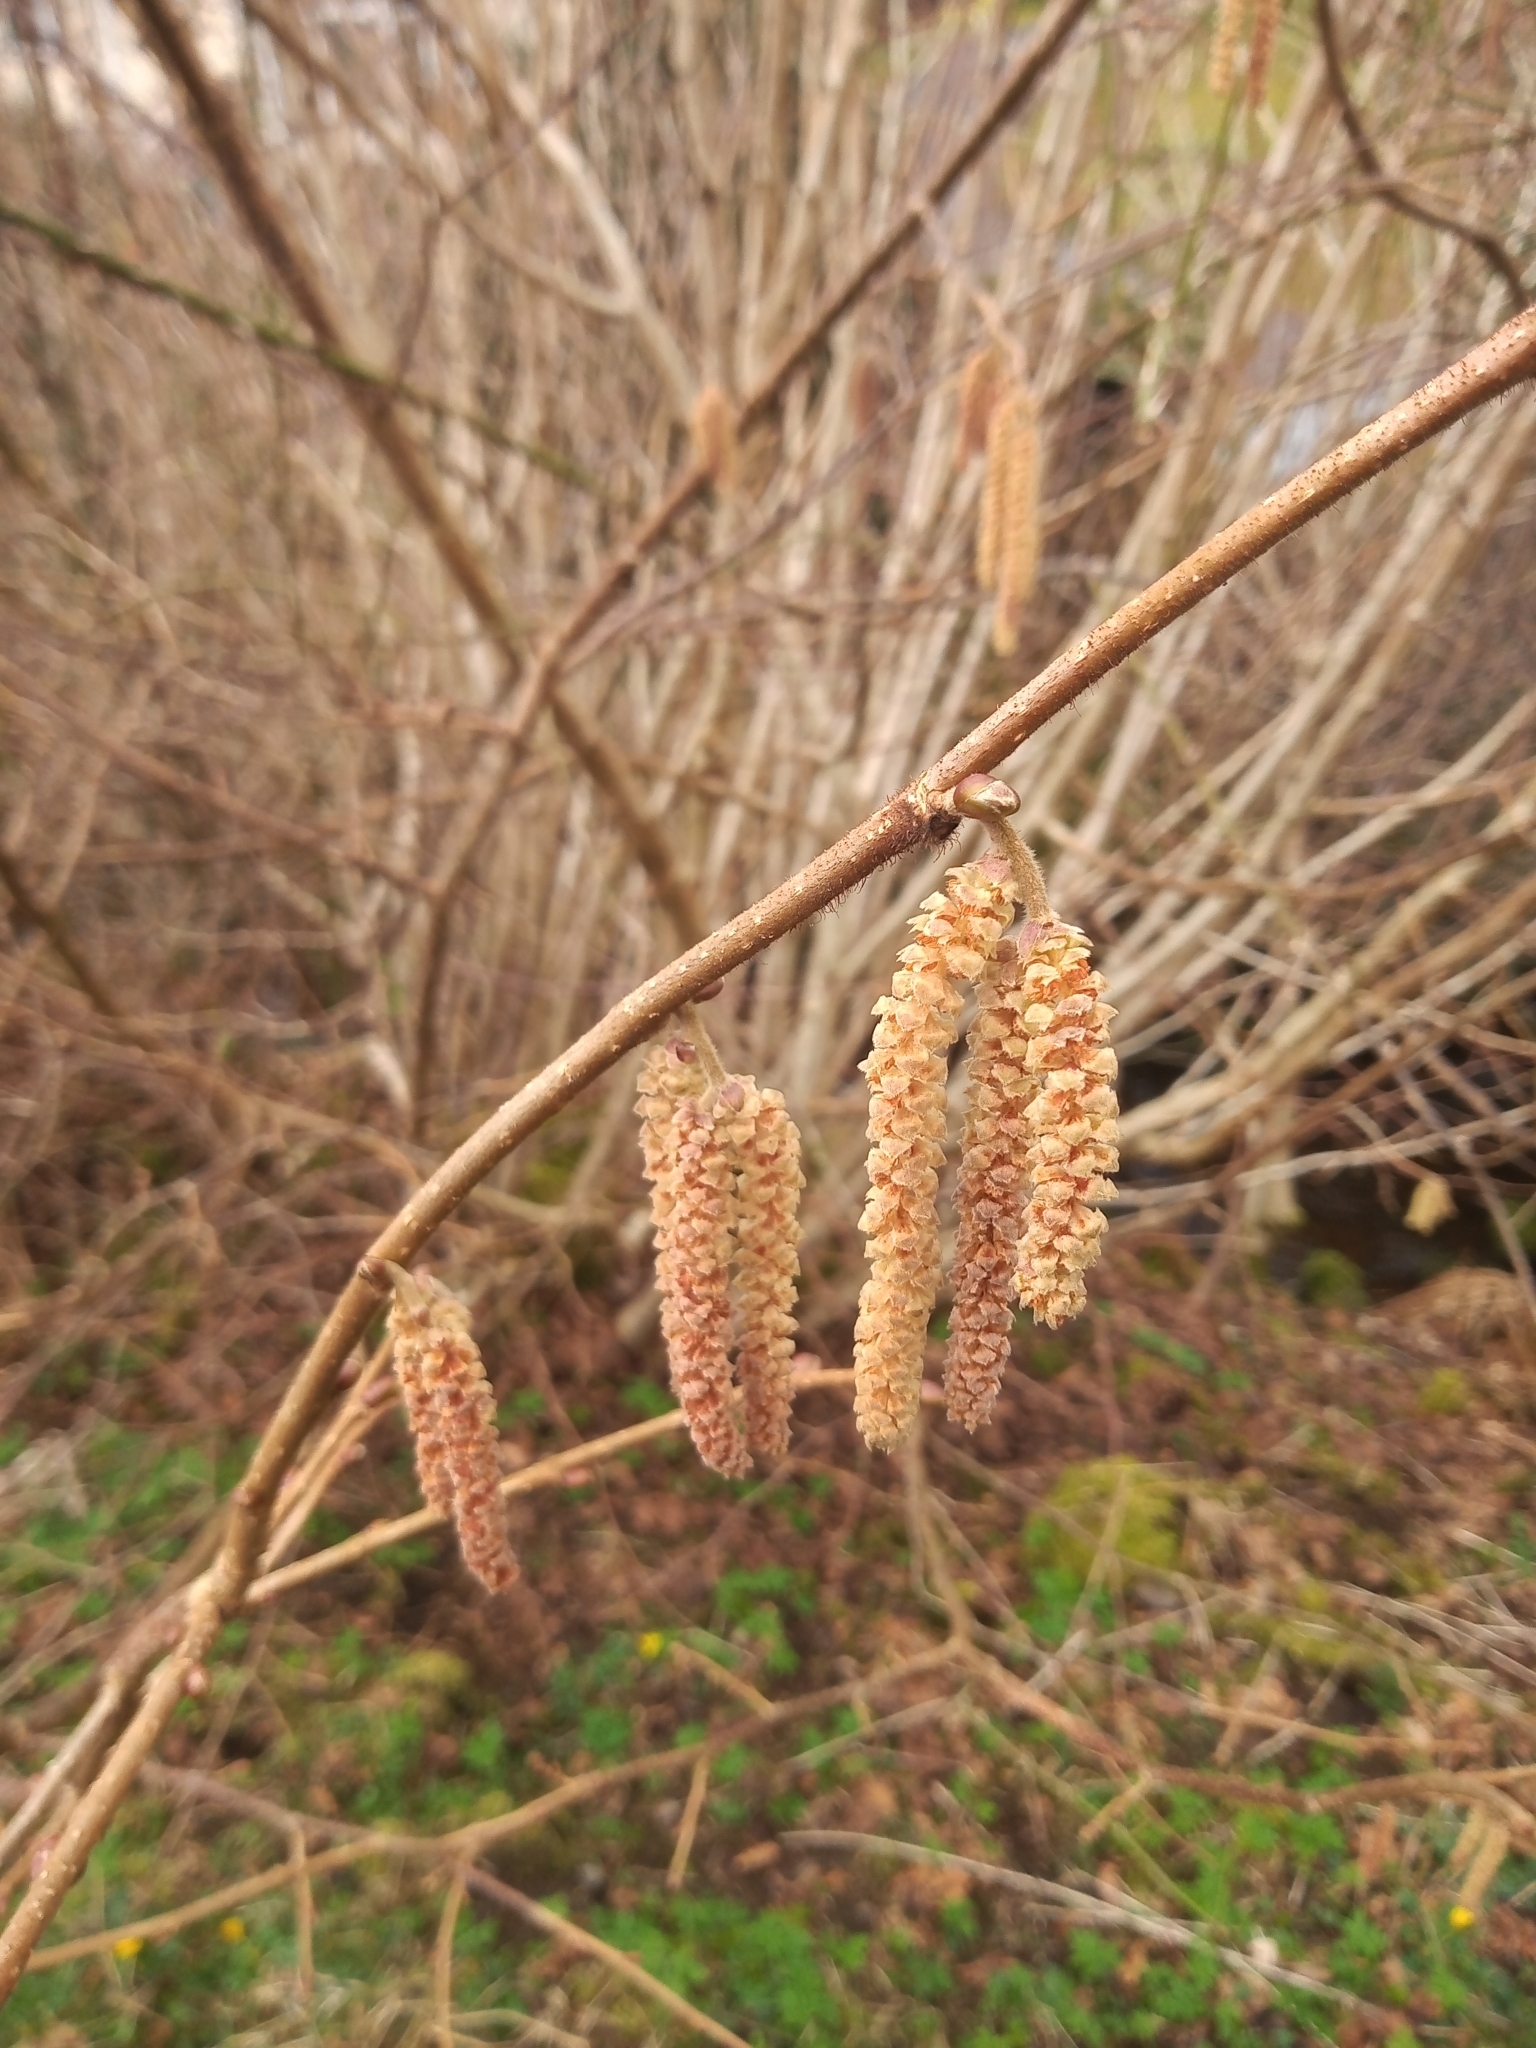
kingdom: Plantae
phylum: Tracheophyta
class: Magnoliopsida
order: Fagales
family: Betulaceae
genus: Corylus
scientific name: Corylus avellana
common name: European hazel
